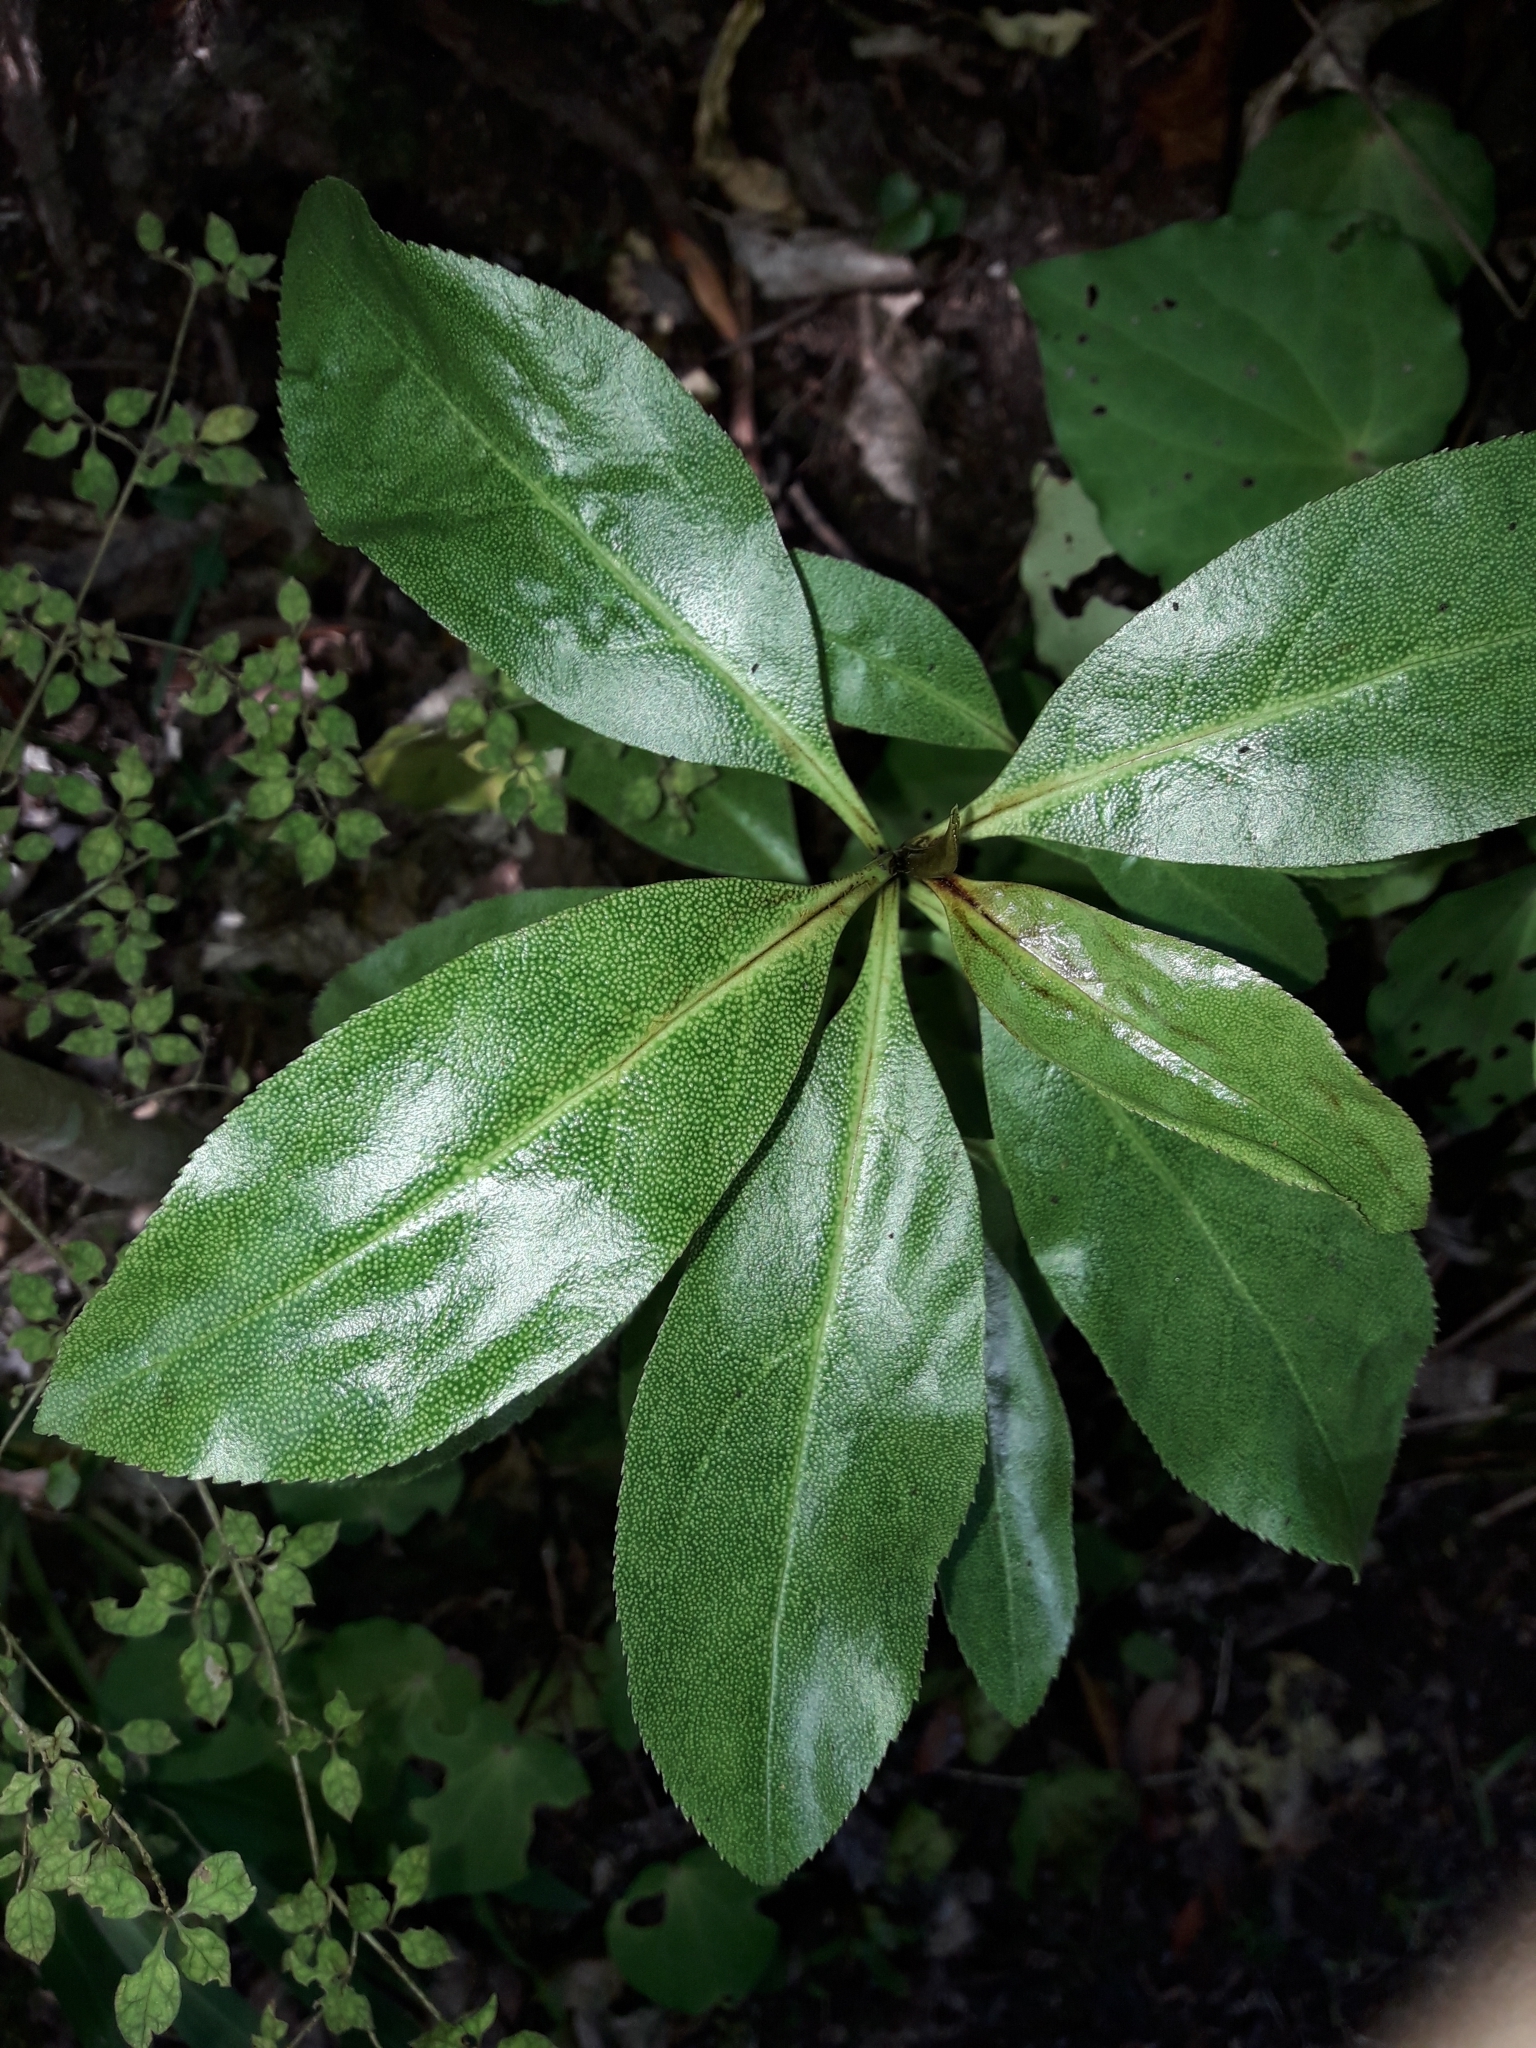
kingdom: Plantae
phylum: Tracheophyta
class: Magnoliopsida
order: Lamiales
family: Scrophulariaceae
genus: Myoporum
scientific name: Myoporum laetum
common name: Ngaio tree
